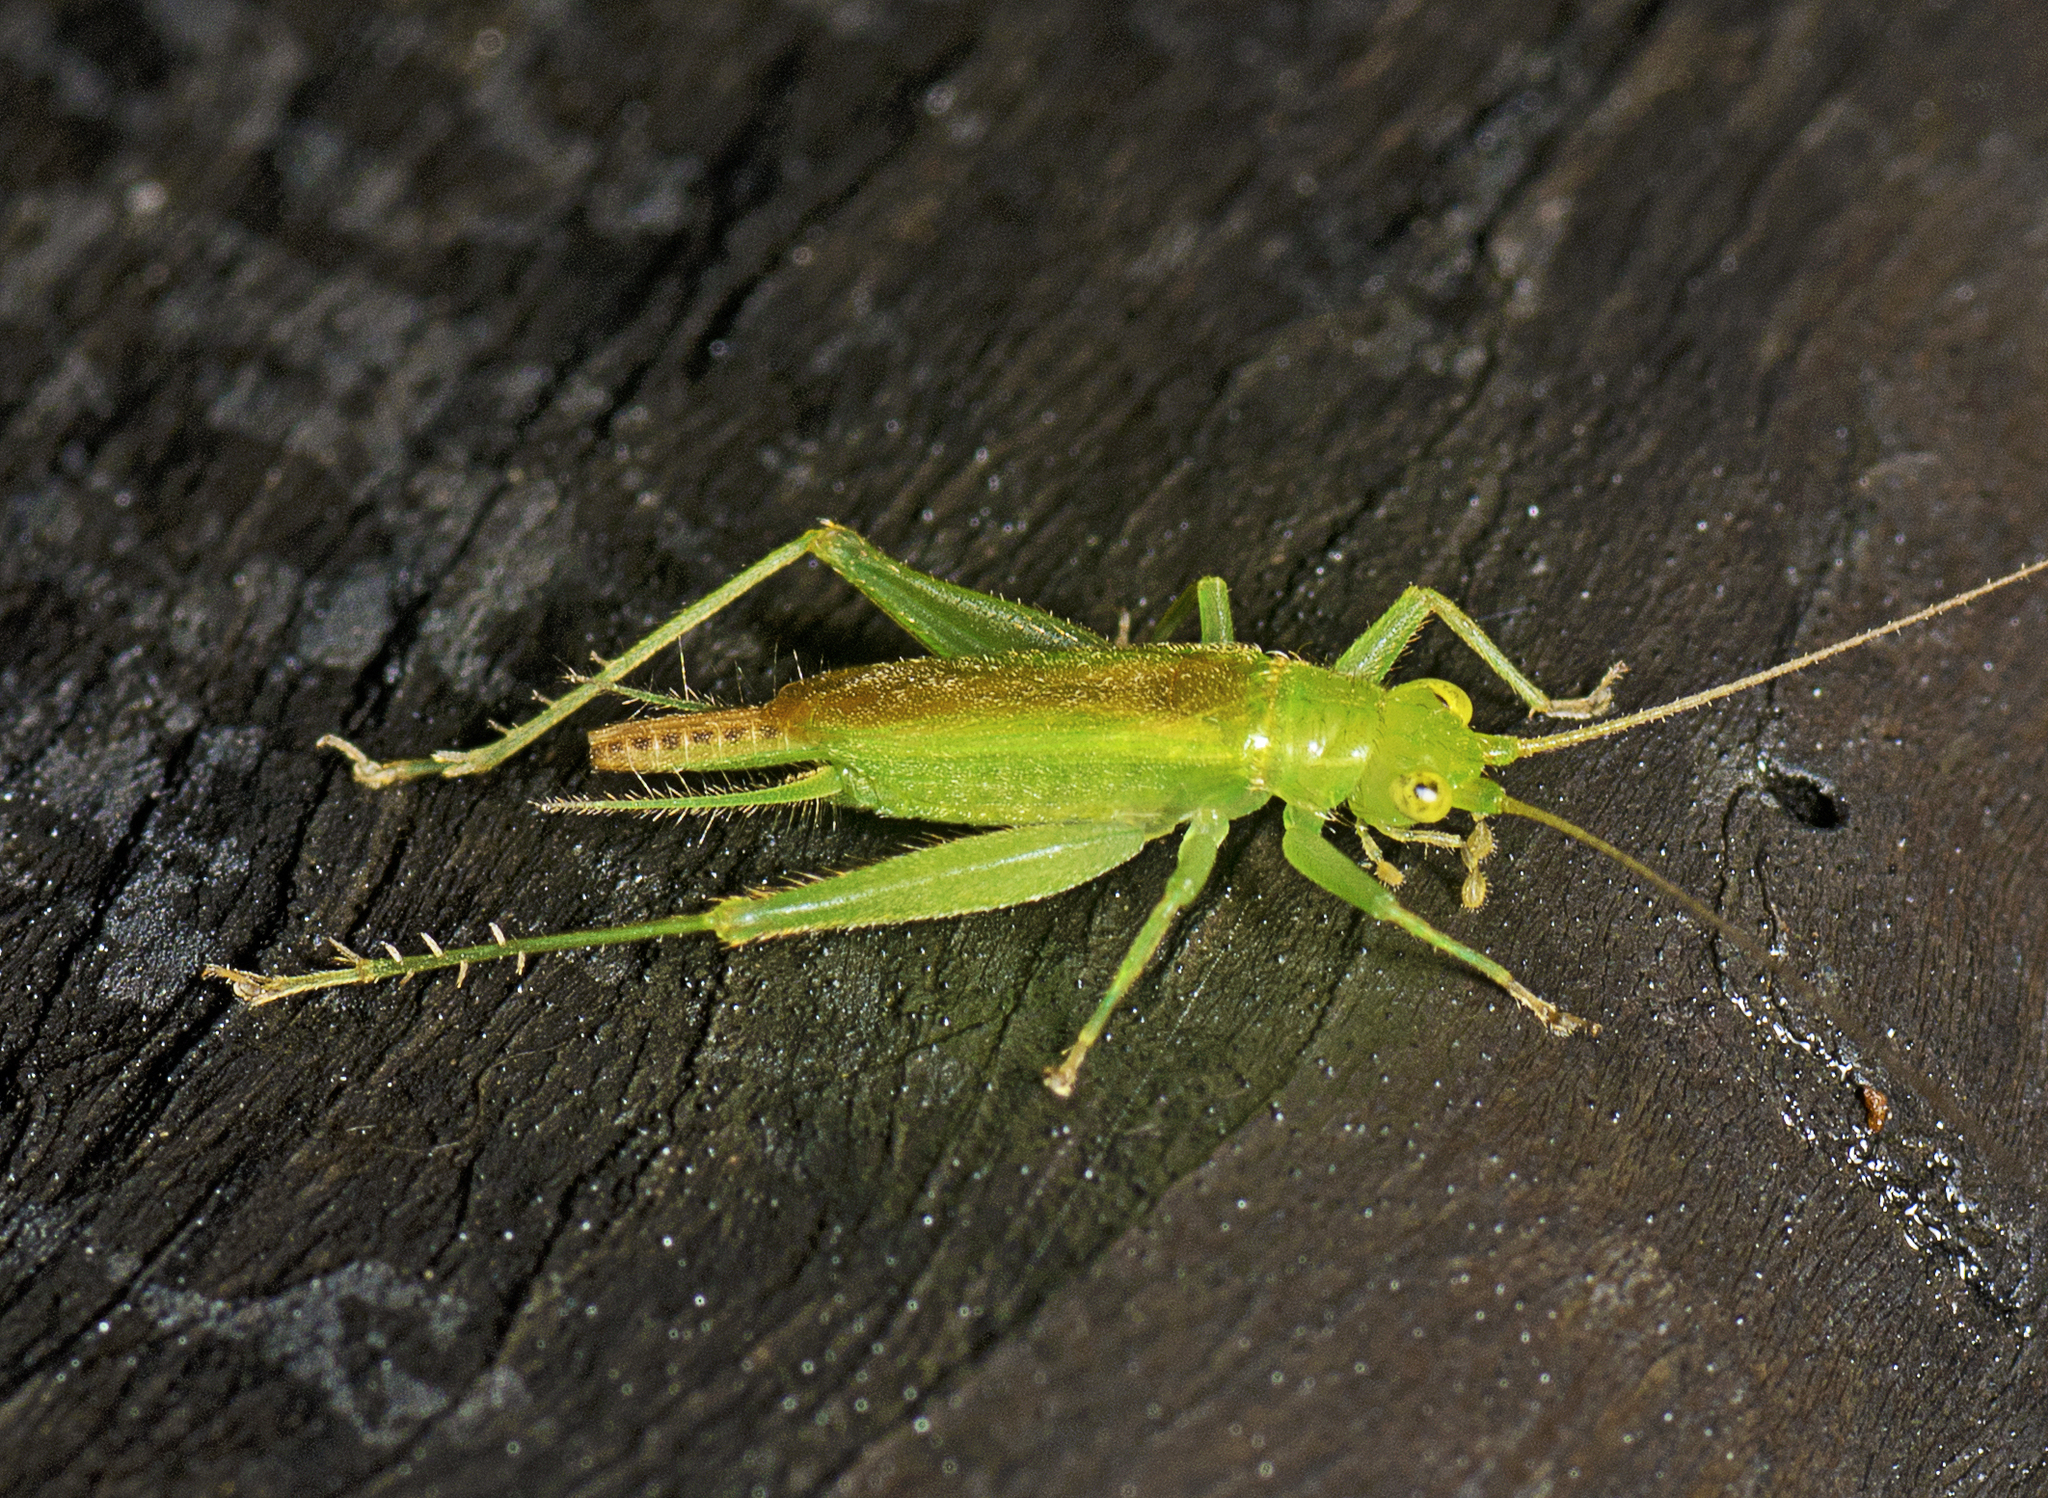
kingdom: Animalia
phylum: Arthropoda
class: Insecta
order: Orthoptera
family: Trigonidiidae
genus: Metiochodes
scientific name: Metiochodes thankolomara
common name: Northern flat-headed leaf runner
